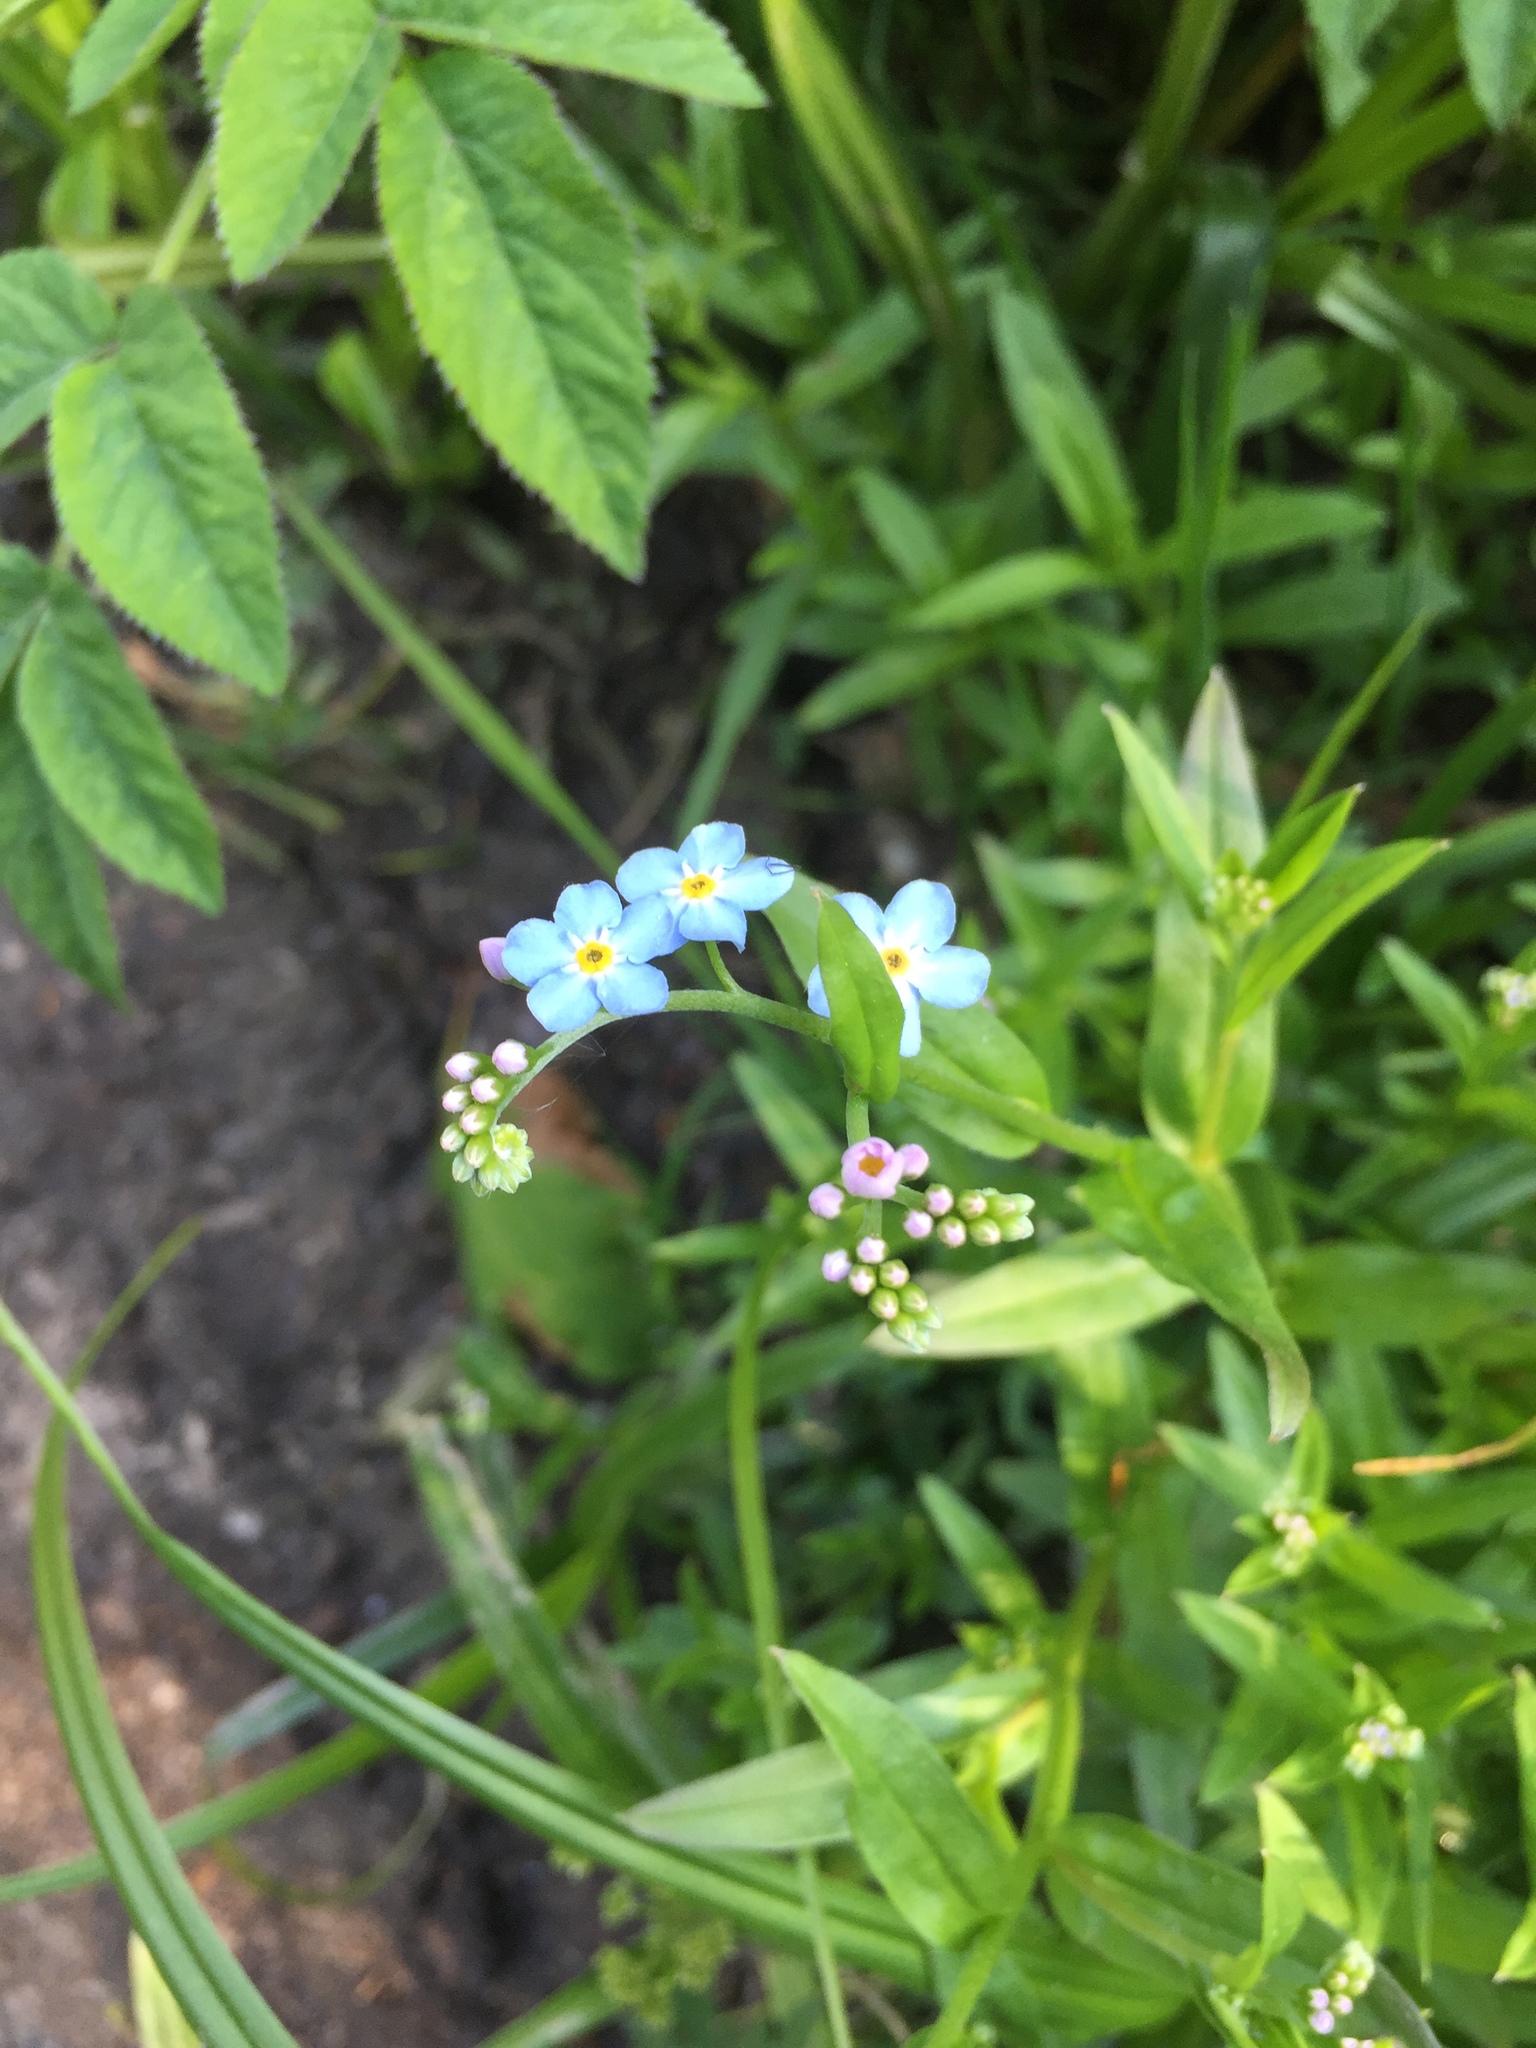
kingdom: Plantae
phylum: Tracheophyta
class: Magnoliopsida
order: Boraginales
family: Boraginaceae
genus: Myosotis
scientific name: Myosotis scorpioides
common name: Water forget-me-not
